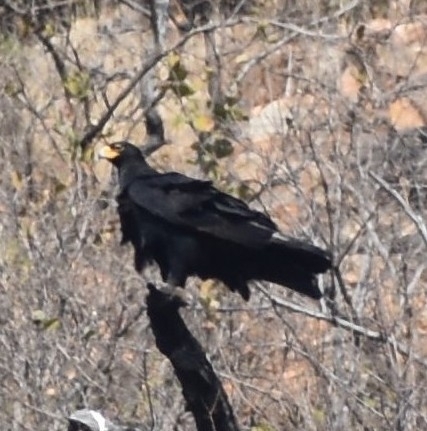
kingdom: Animalia
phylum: Chordata
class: Aves
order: Accipitriformes
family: Accipitridae
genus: Aquila
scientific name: Aquila verreauxii
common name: Verreaux's eagle
